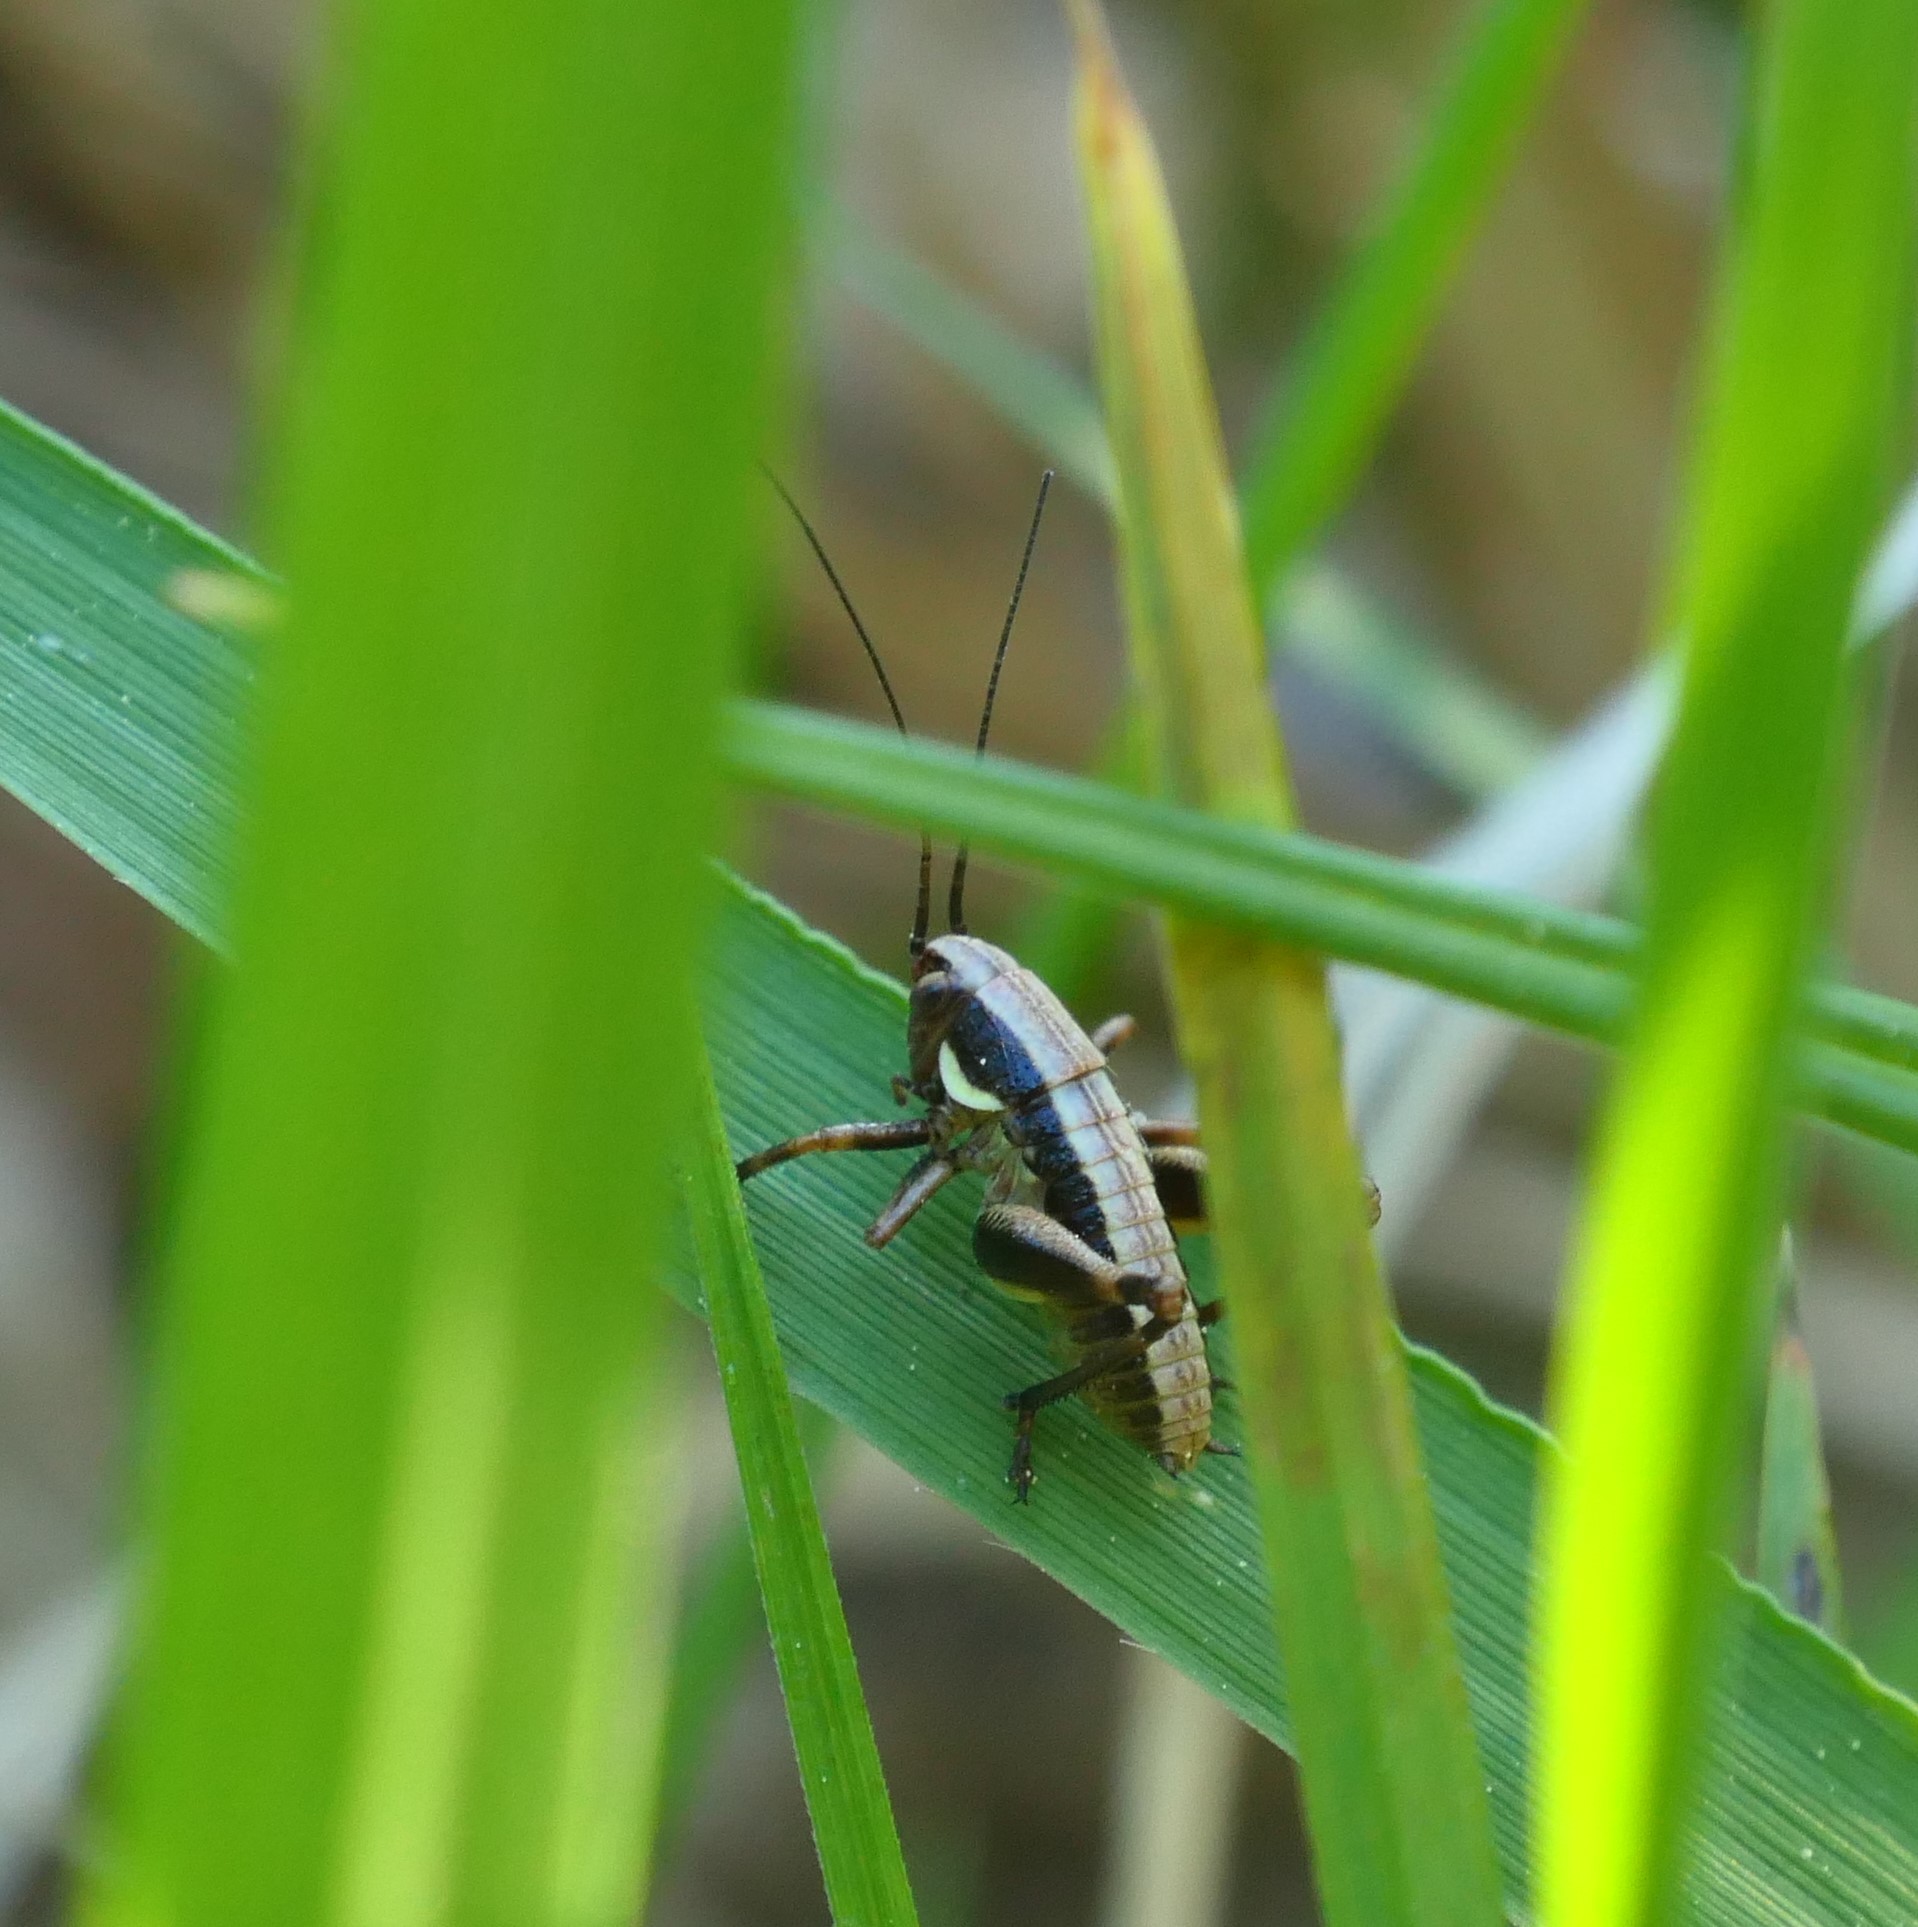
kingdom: Animalia
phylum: Arthropoda
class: Insecta
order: Orthoptera
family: Tettigoniidae
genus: Eupholidoptera
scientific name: Eupholidoptera schmidti
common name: Schmidt's marbled bush-cricket
